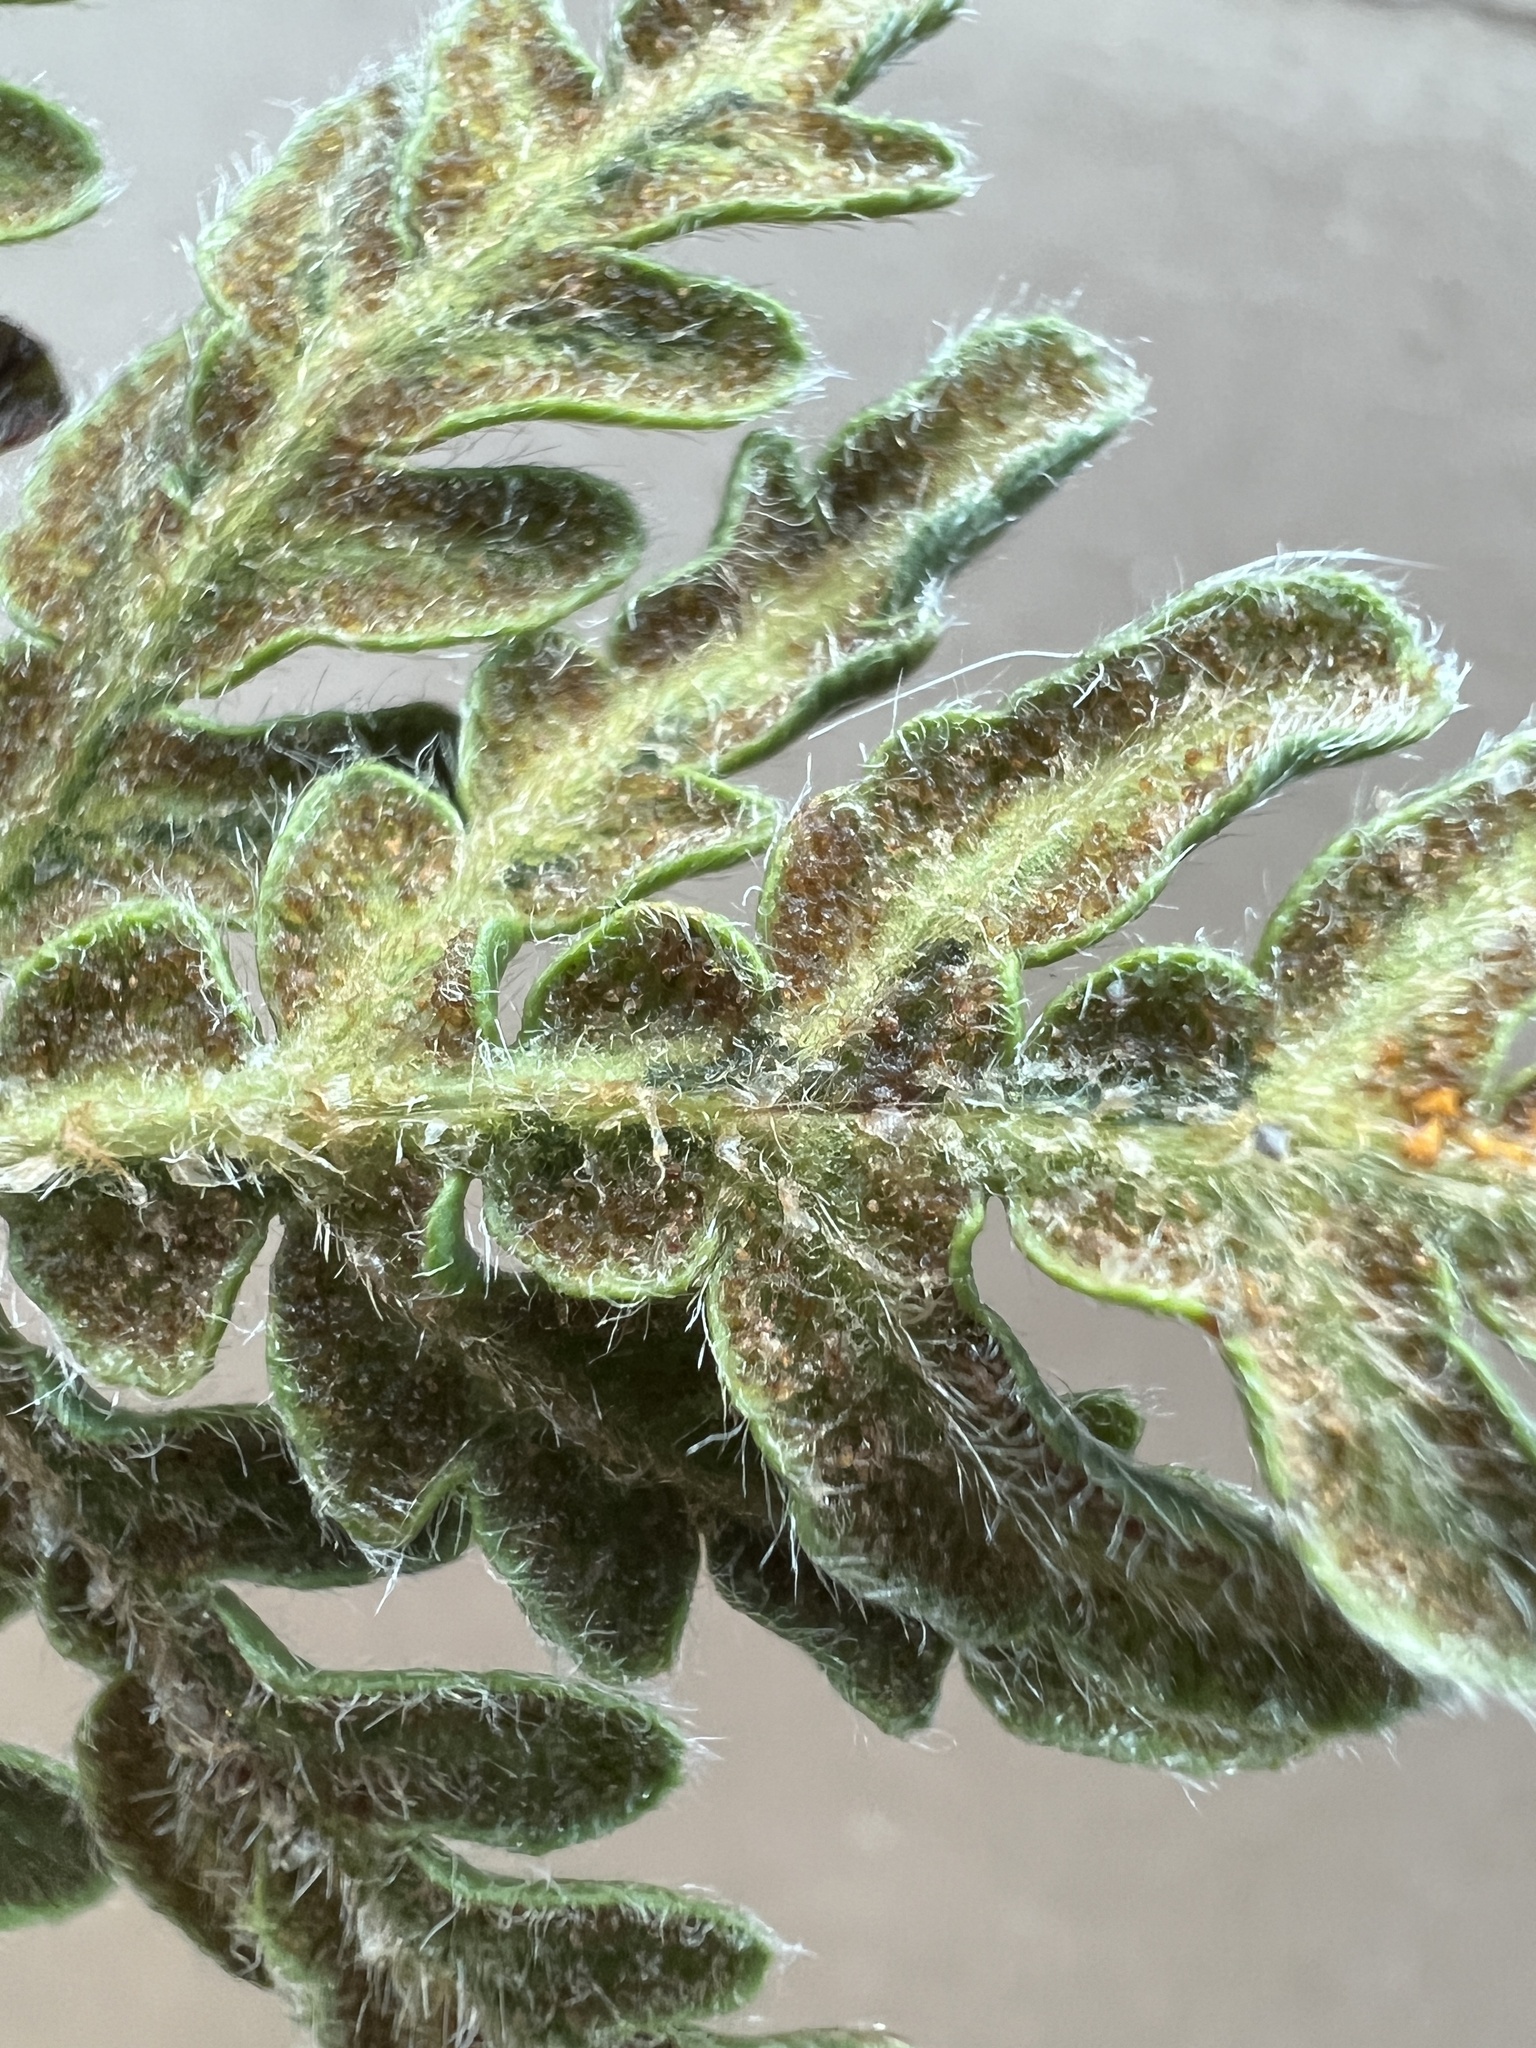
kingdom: Plantae
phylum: Tracheophyta
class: Polypodiopsida
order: Polypodiales
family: Pteridaceae
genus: Bommeria
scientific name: Bommeria hispida
